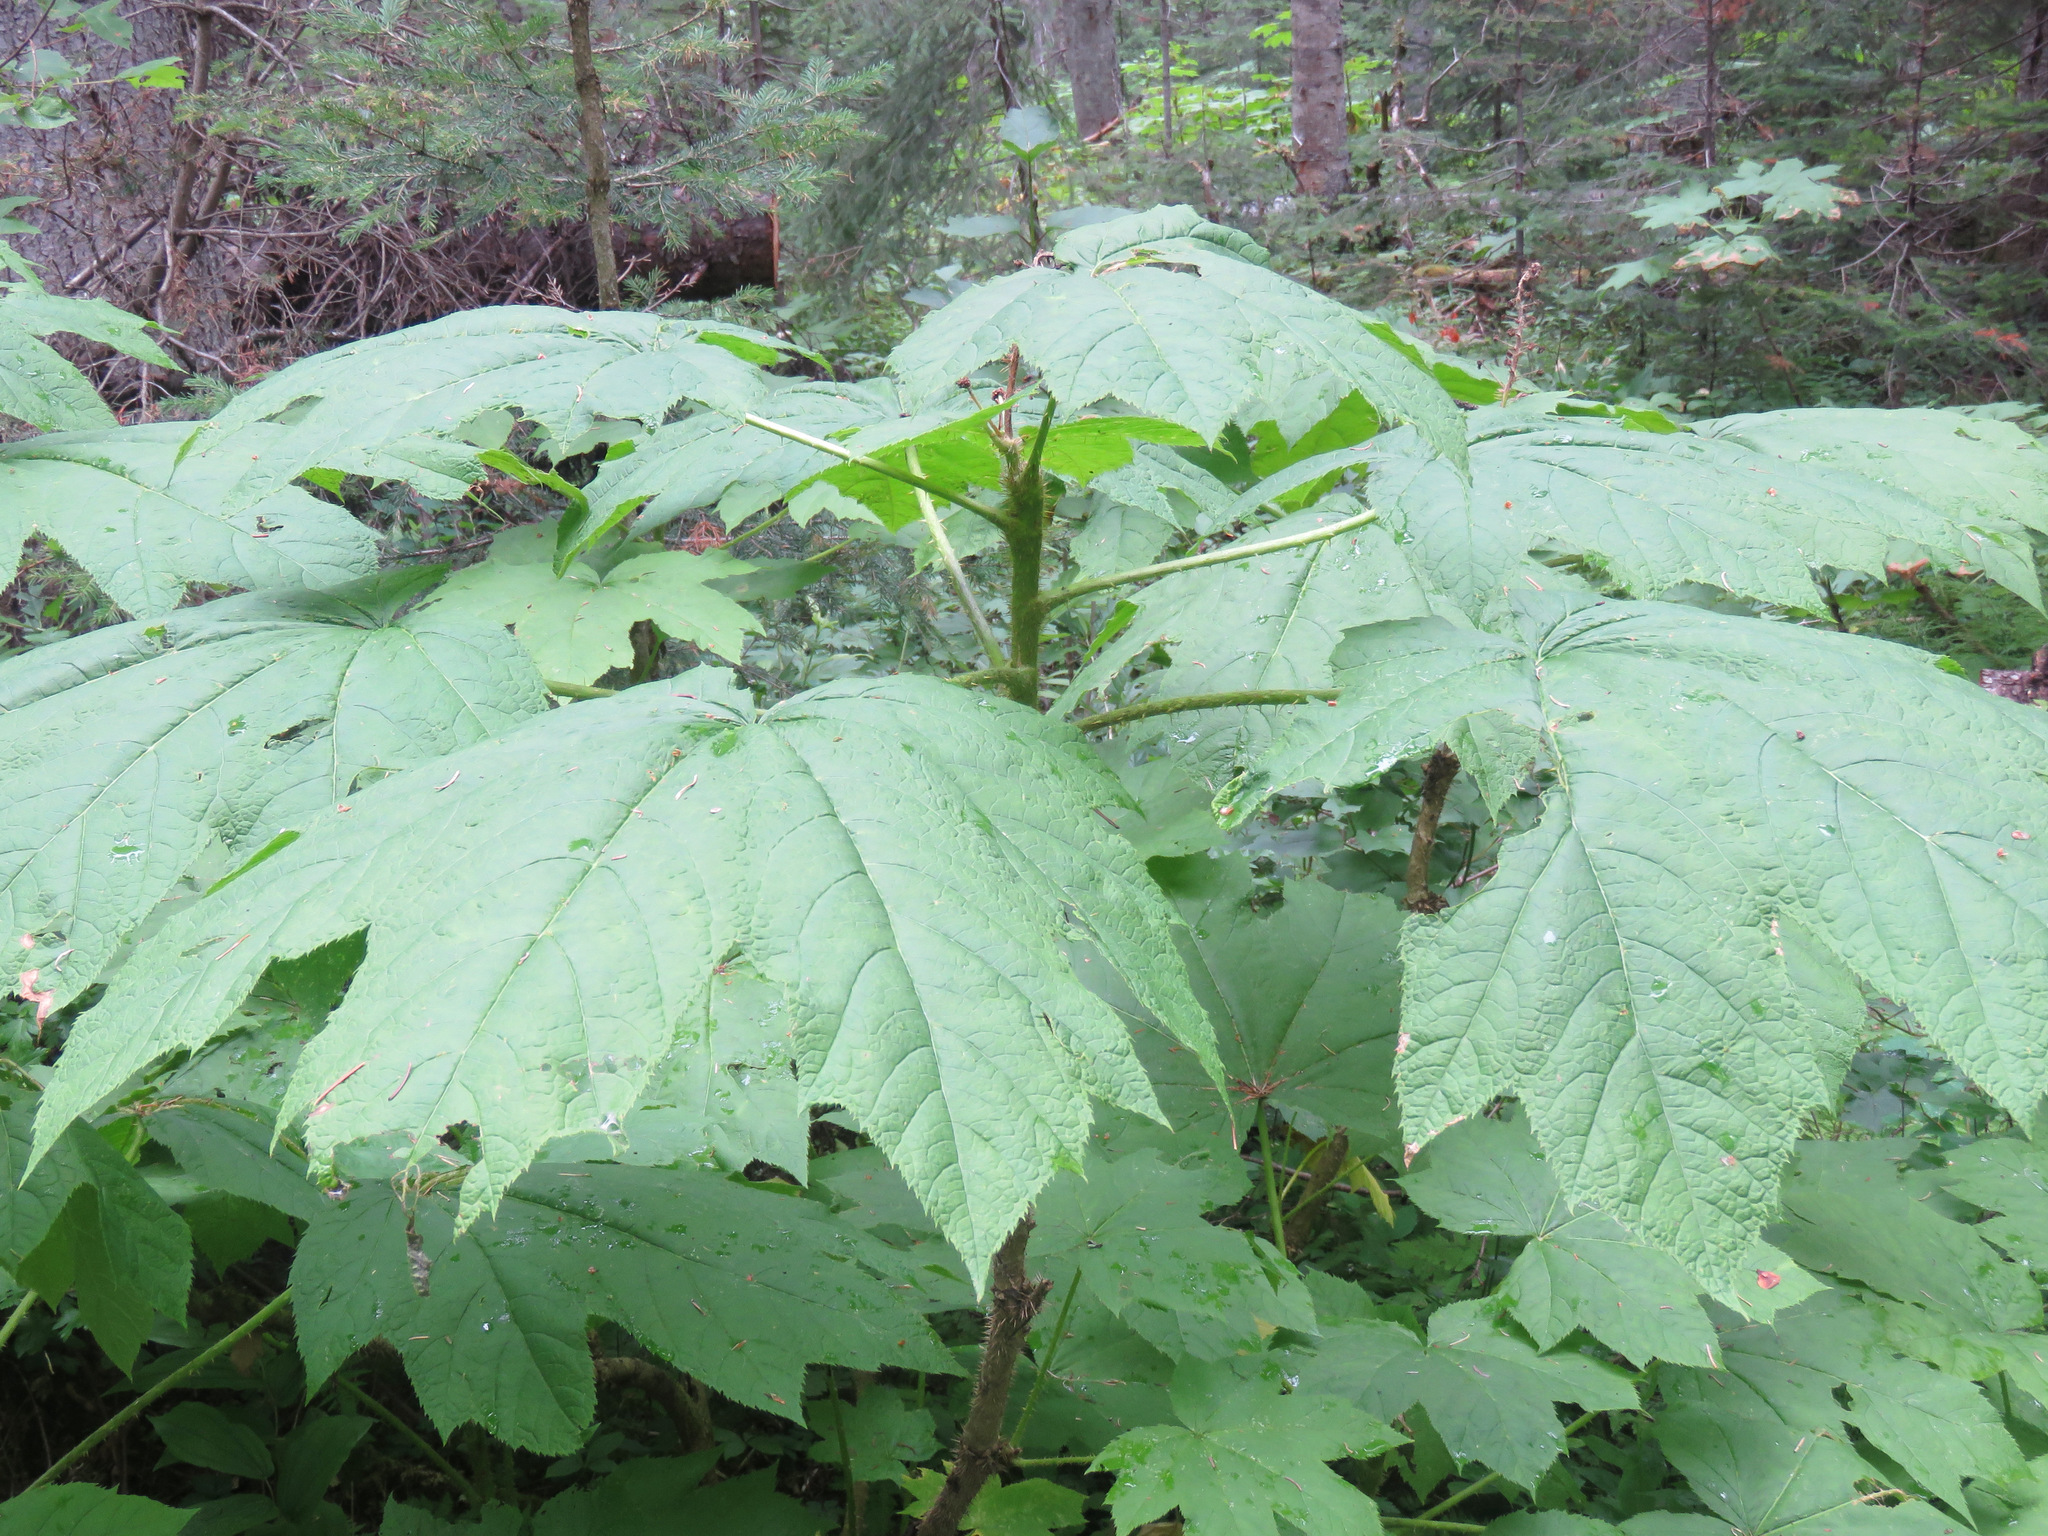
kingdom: Plantae
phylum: Tracheophyta
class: Magnoliopsida
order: Apiales
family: Araliaceae
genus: Oplopanax
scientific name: Oplopanax horridus
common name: Devil's walking-stick
